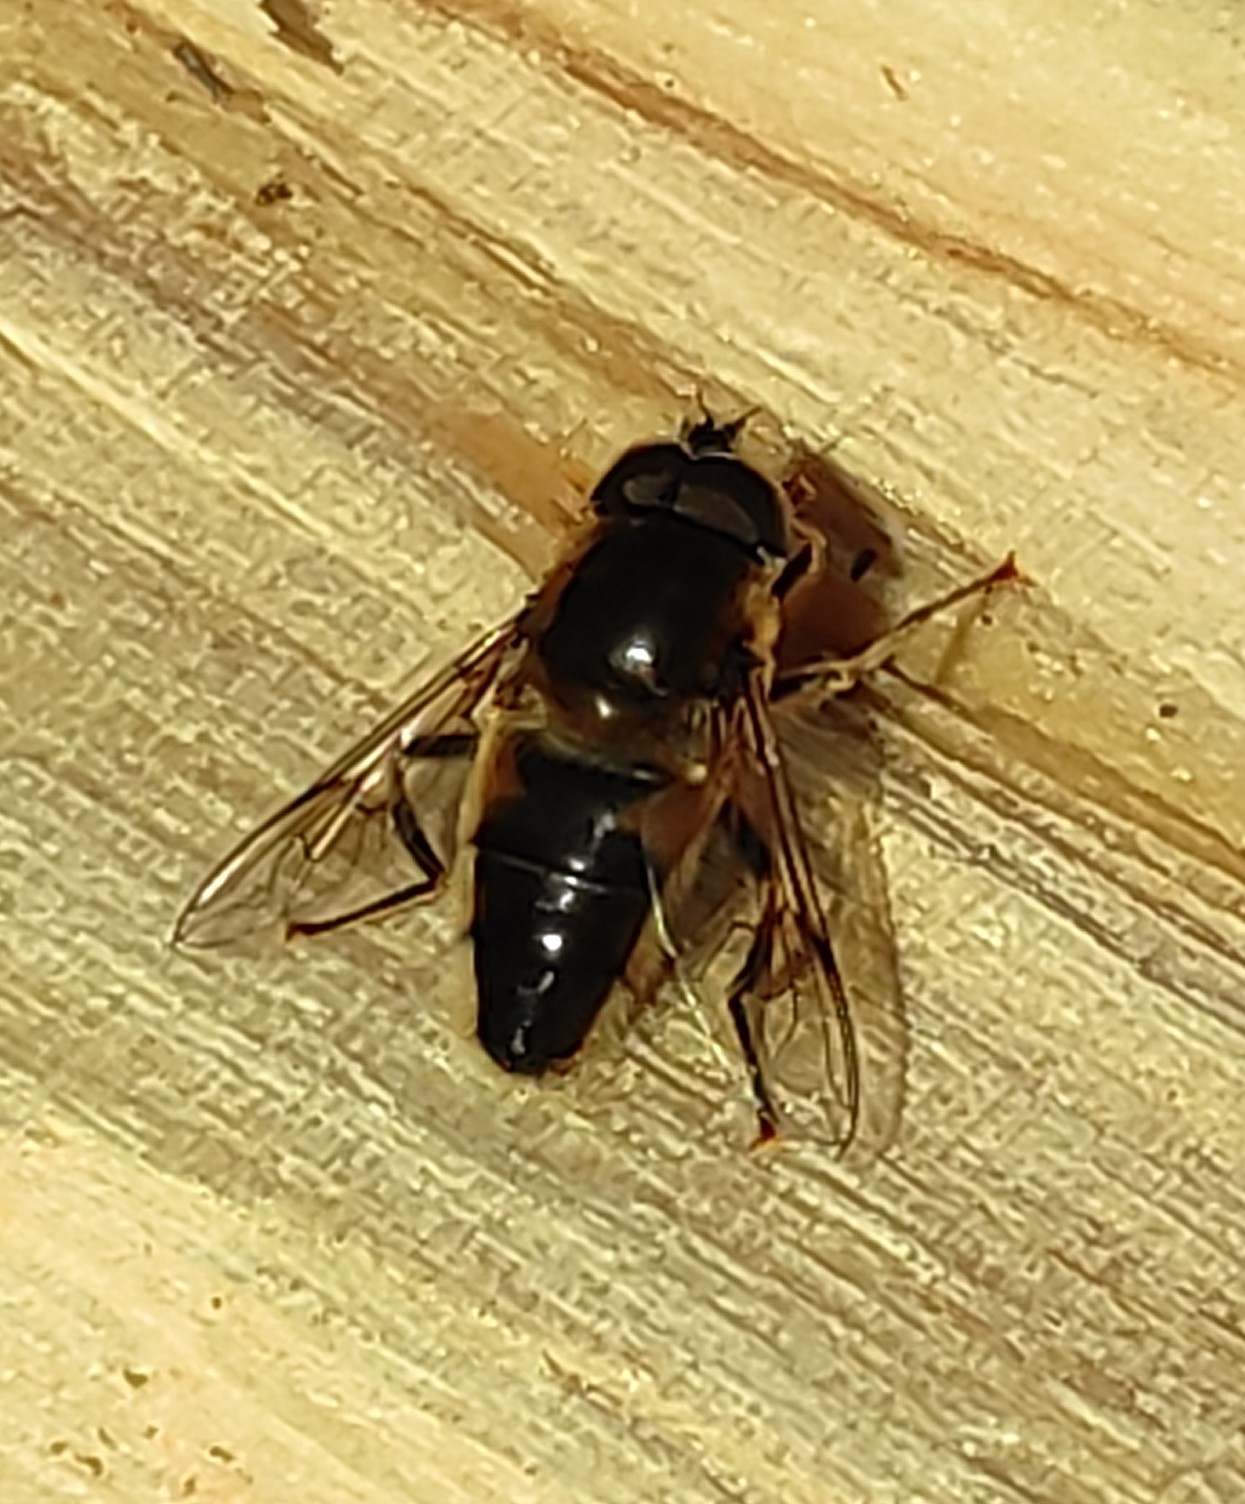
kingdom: Animalia
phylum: Arthropoda
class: Insecta
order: Diptera
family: Syrphidae
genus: Eristalis
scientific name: Eristalis pertinax
